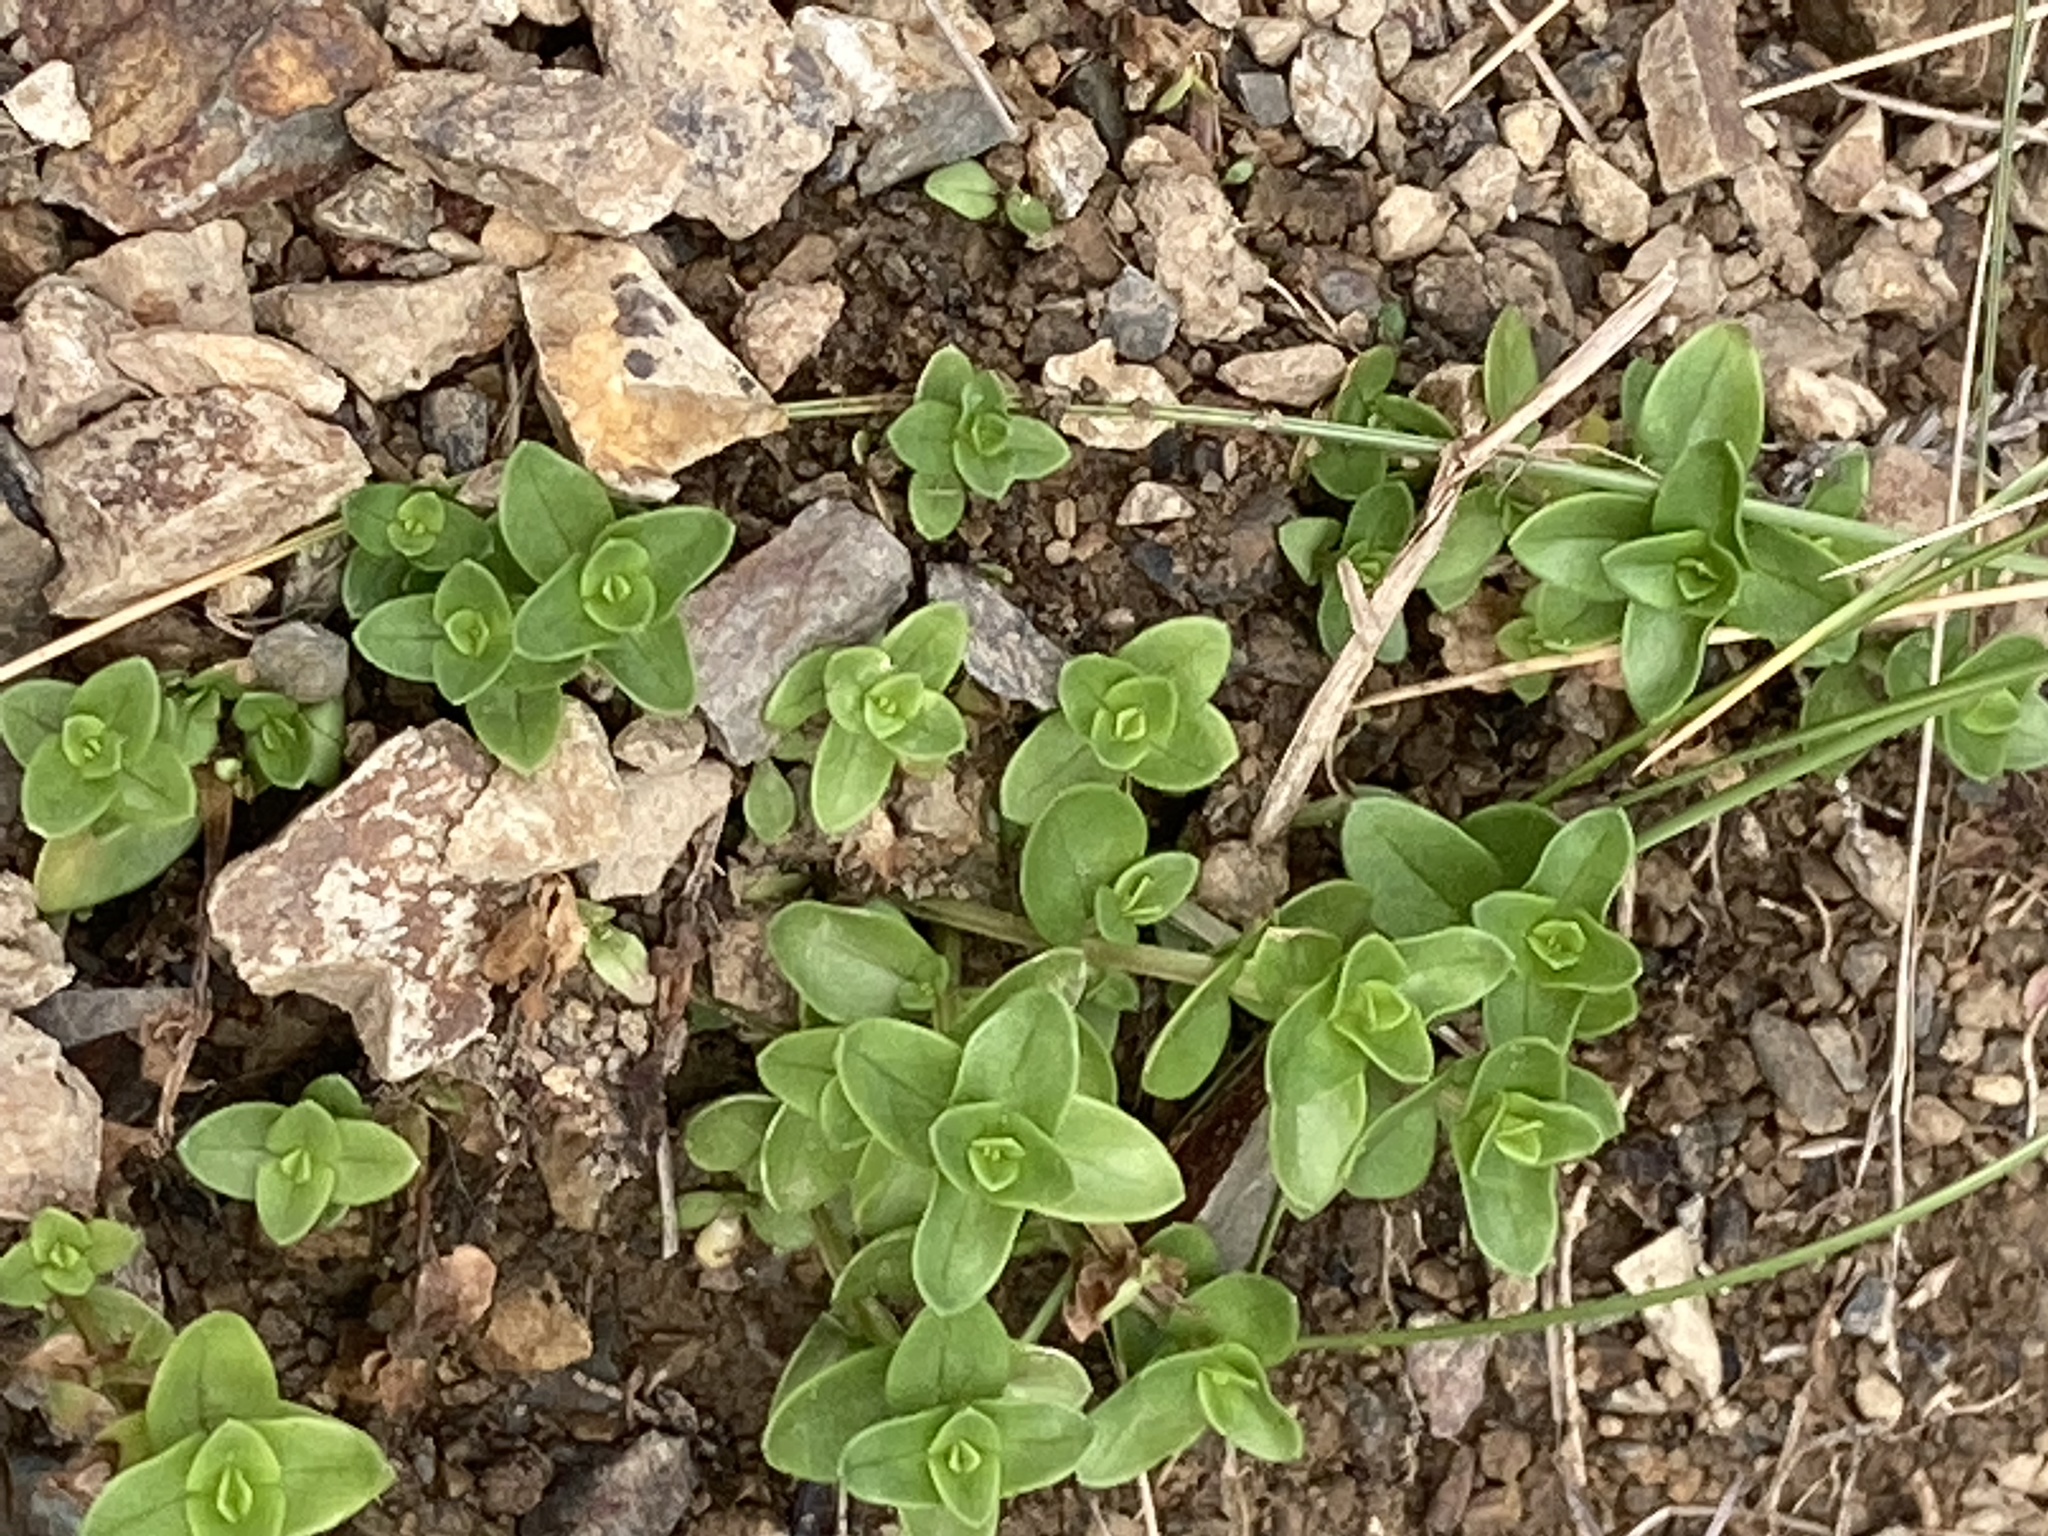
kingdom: Plantae
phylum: Tracheophyta
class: Magnoliopsida
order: Ericales
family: Primulaceae
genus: Lysimachia
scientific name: Lysimachia arvensis
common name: Scarlet pimpernel
